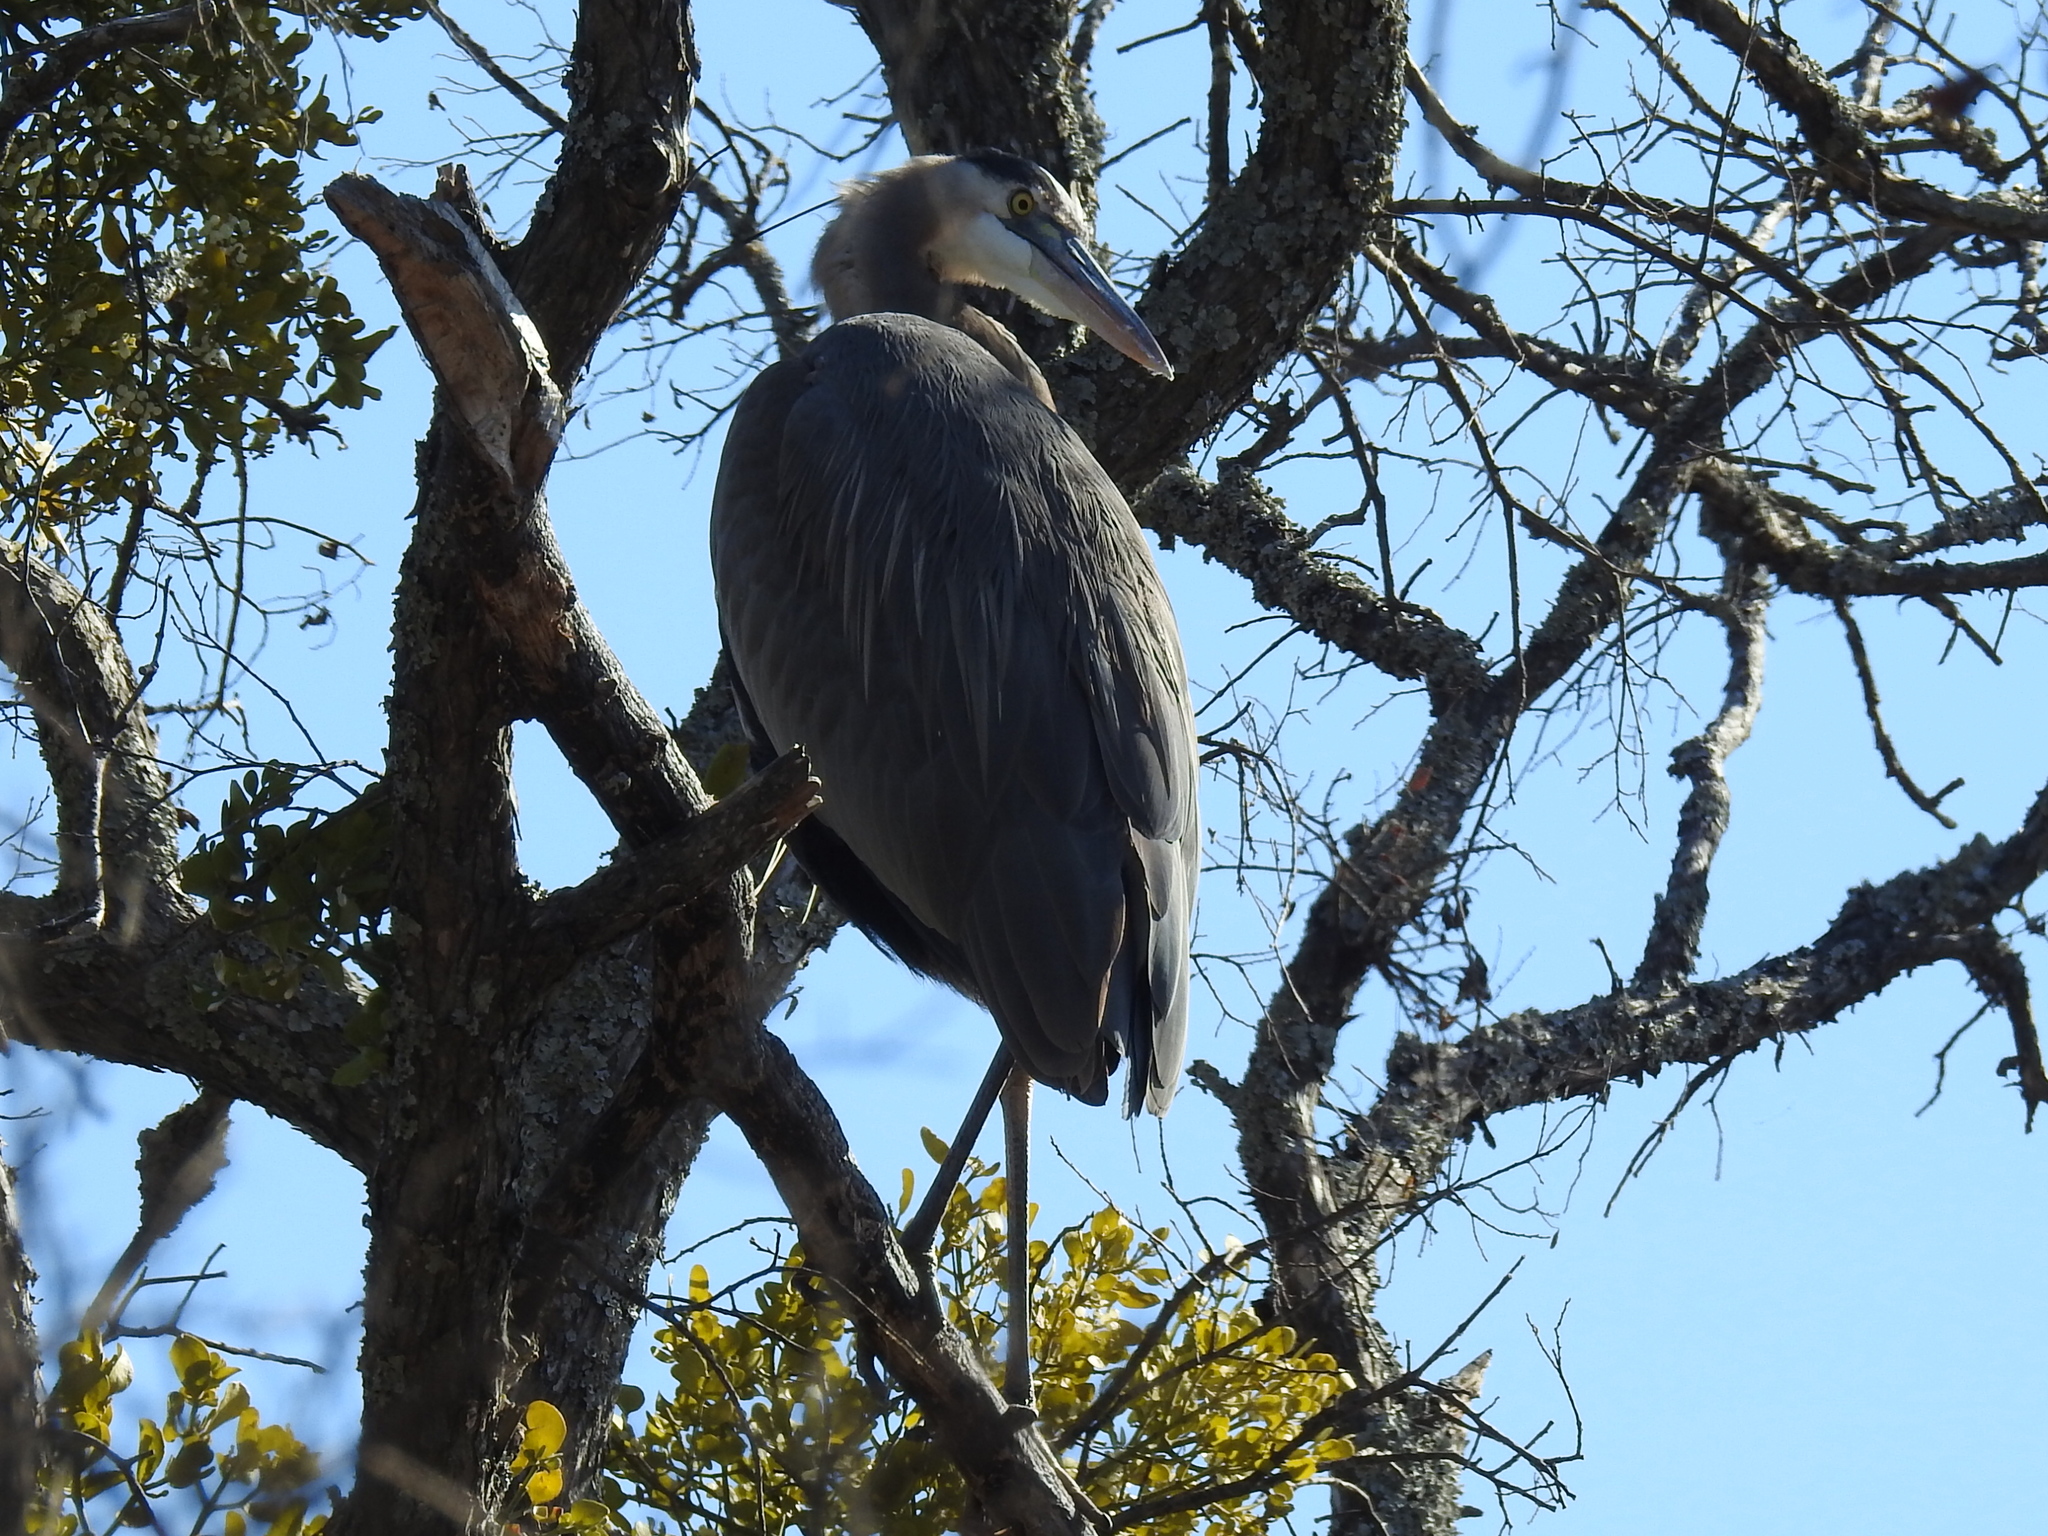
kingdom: Animalia
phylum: Chordata
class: Aves
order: Pelecaniformes
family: Ardeidae
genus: Ardea
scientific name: Ardea herodias
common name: Great blue heron
